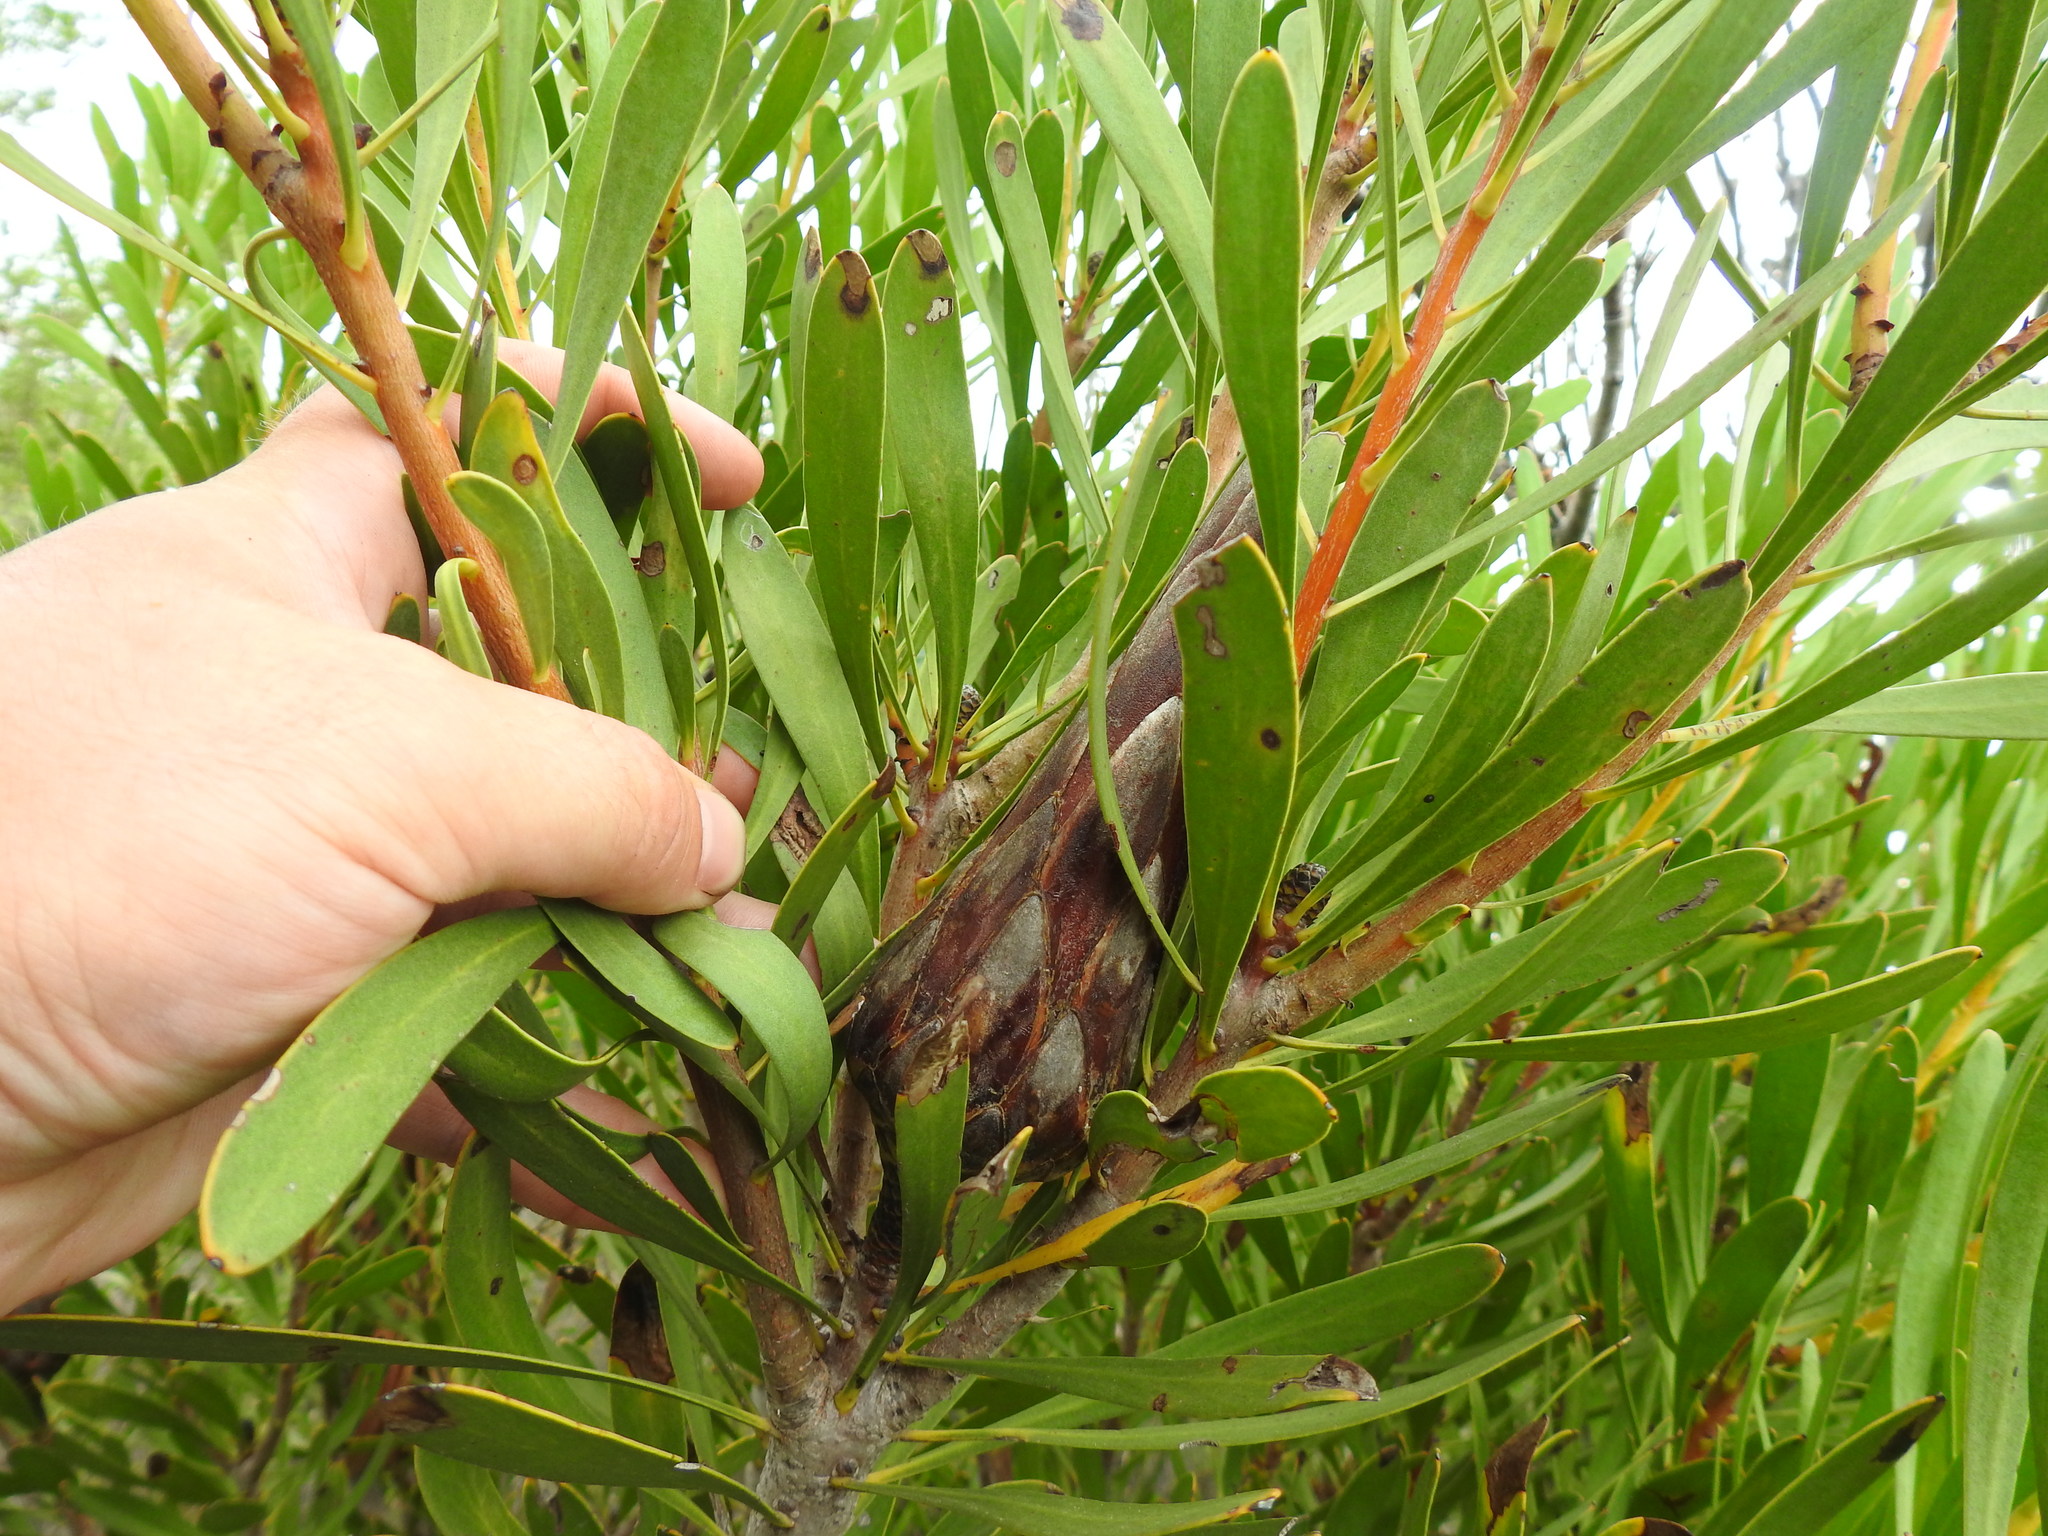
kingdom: Plantae
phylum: Tracheophyta
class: Magnoliopsida
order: Proteales
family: Proteaceae
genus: Protea
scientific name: Protea repens
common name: Sugarbush
